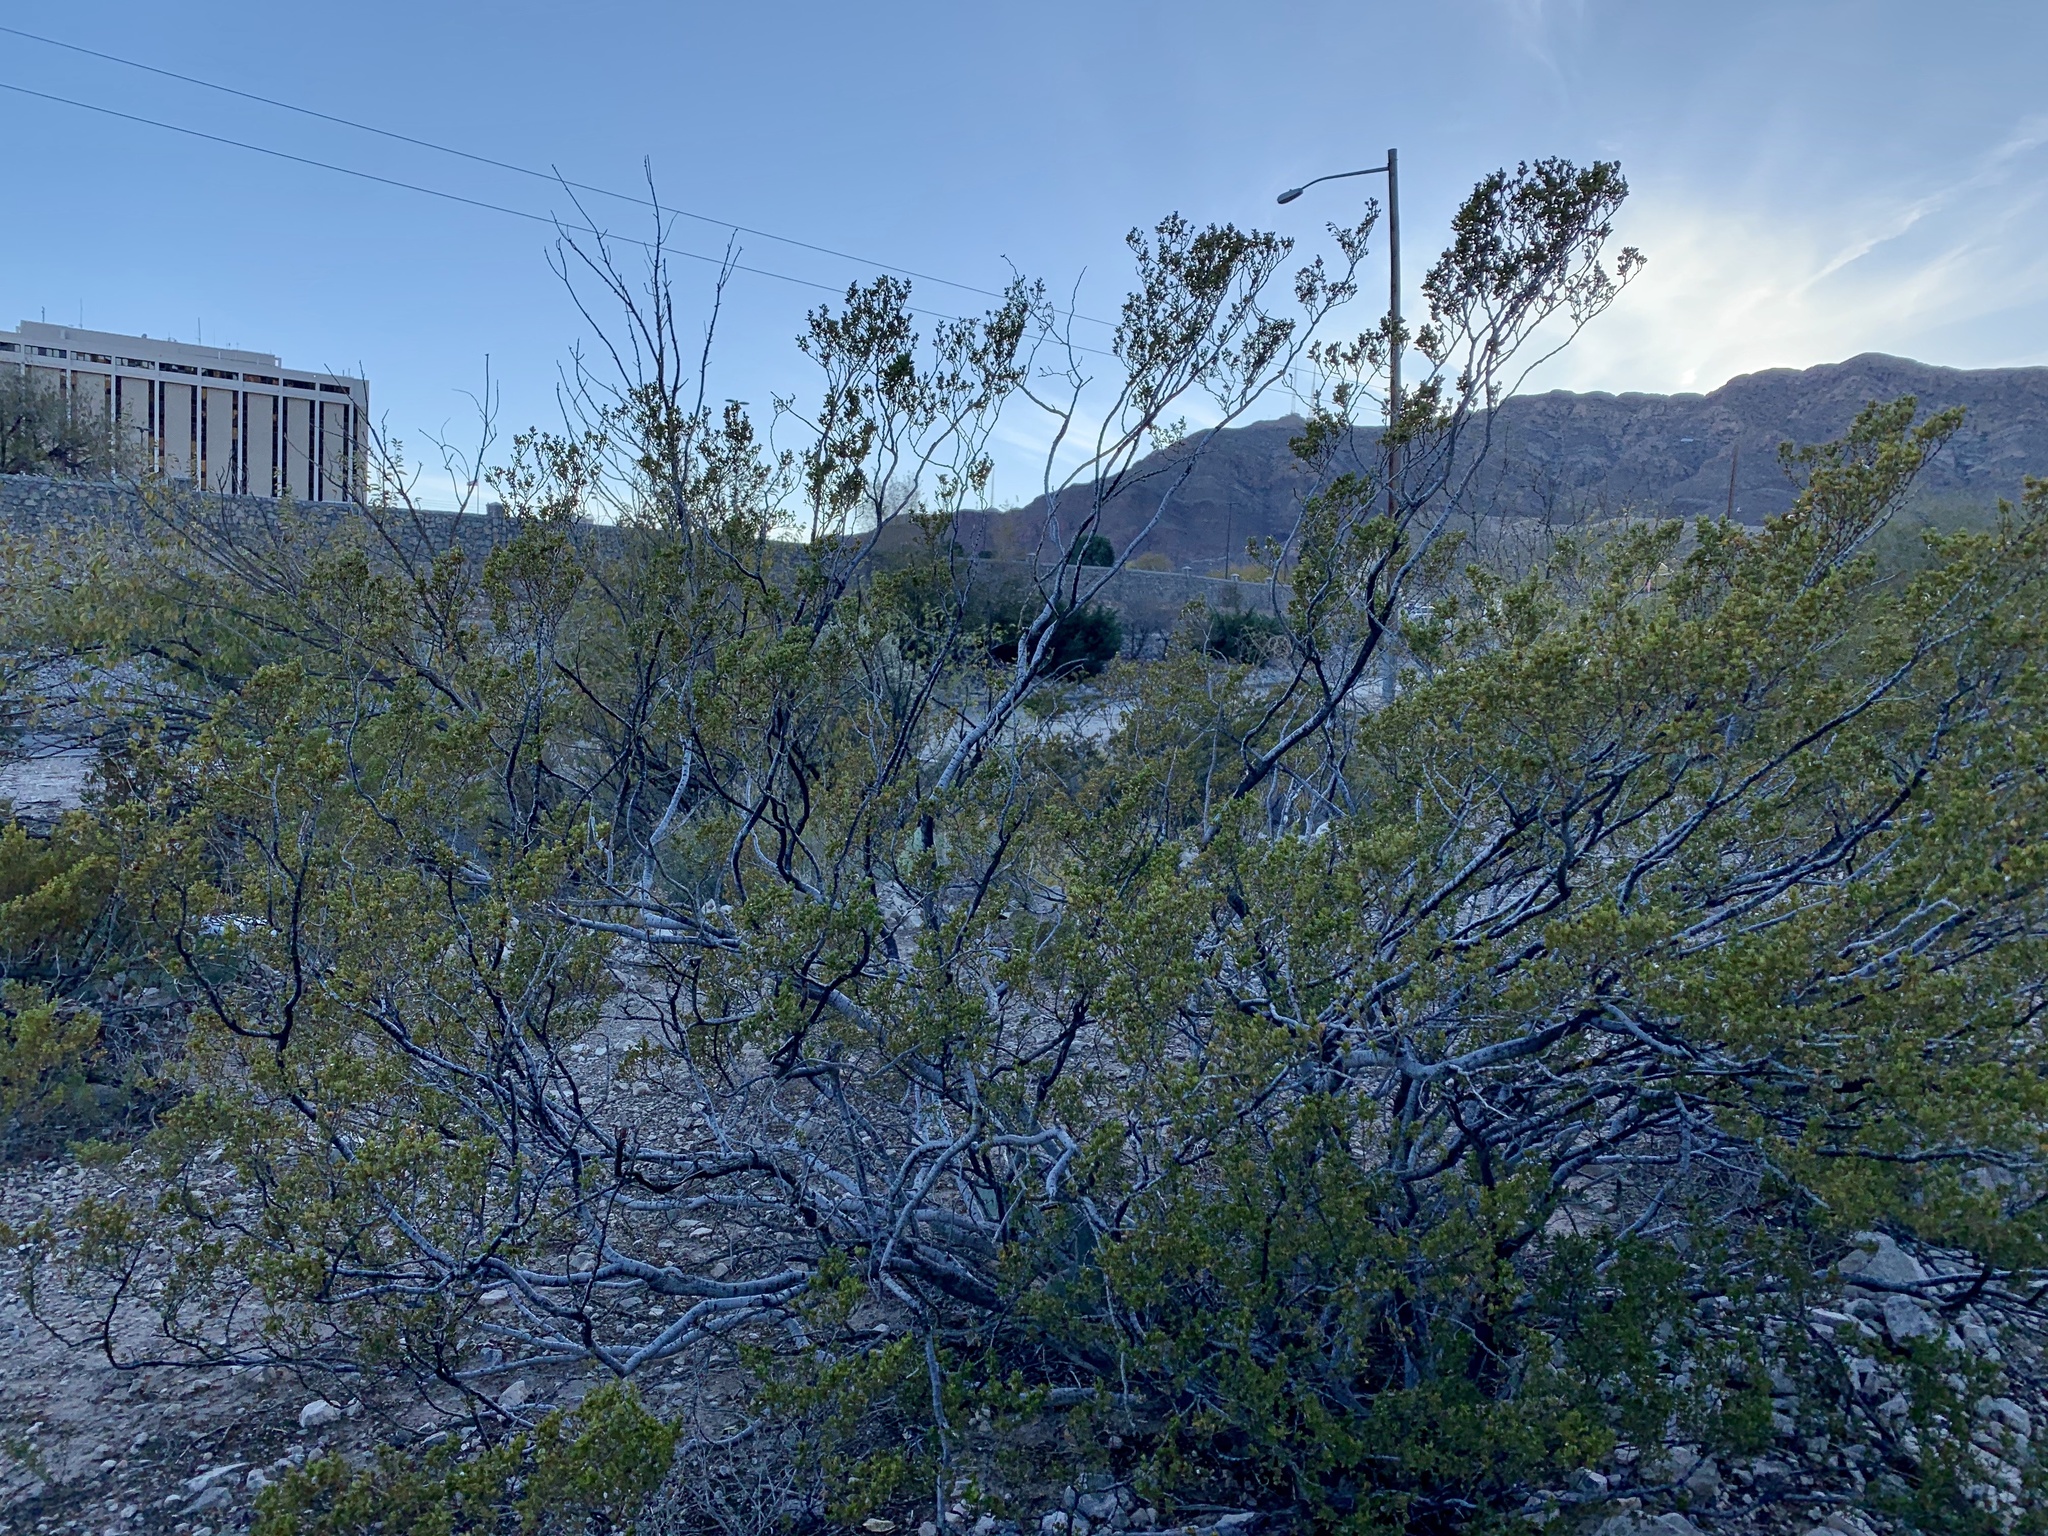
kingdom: Plantae
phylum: Tracheophyta
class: Magnoliopsida
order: Zygophyllales
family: Zygophyllaceae
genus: Larrea
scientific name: Larrea tridentata
